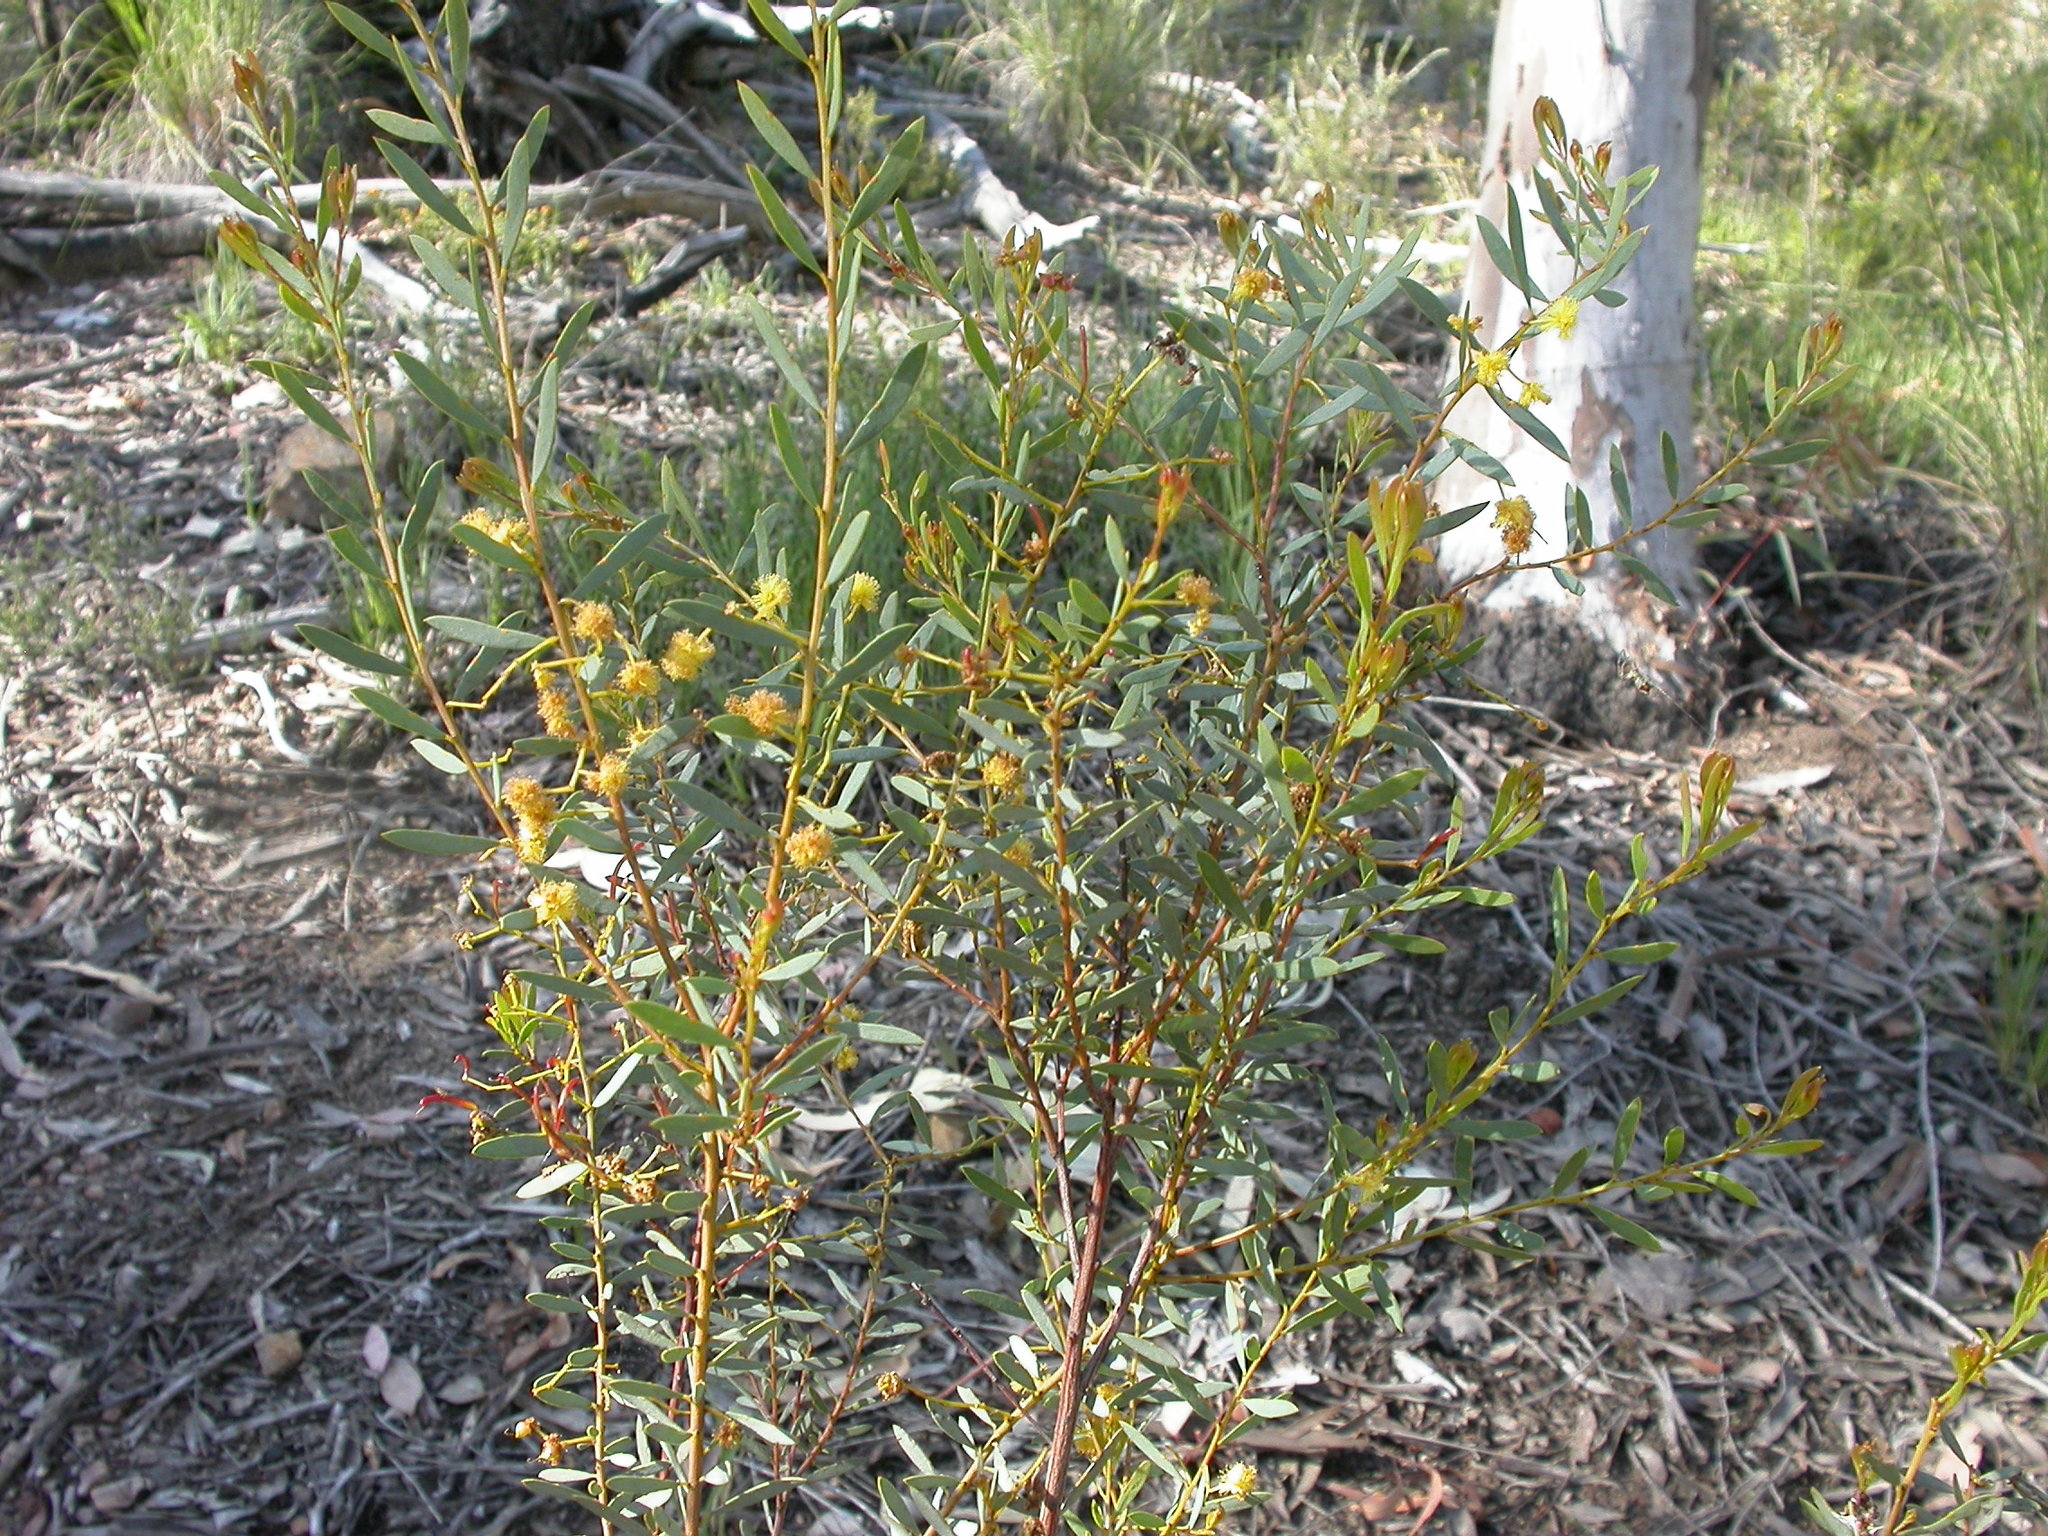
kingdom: Plantae
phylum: Tracheophyta
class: Magnoliopsida
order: Fabales
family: Fabaceae
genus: Acacia
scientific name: Acacia buxifolia
